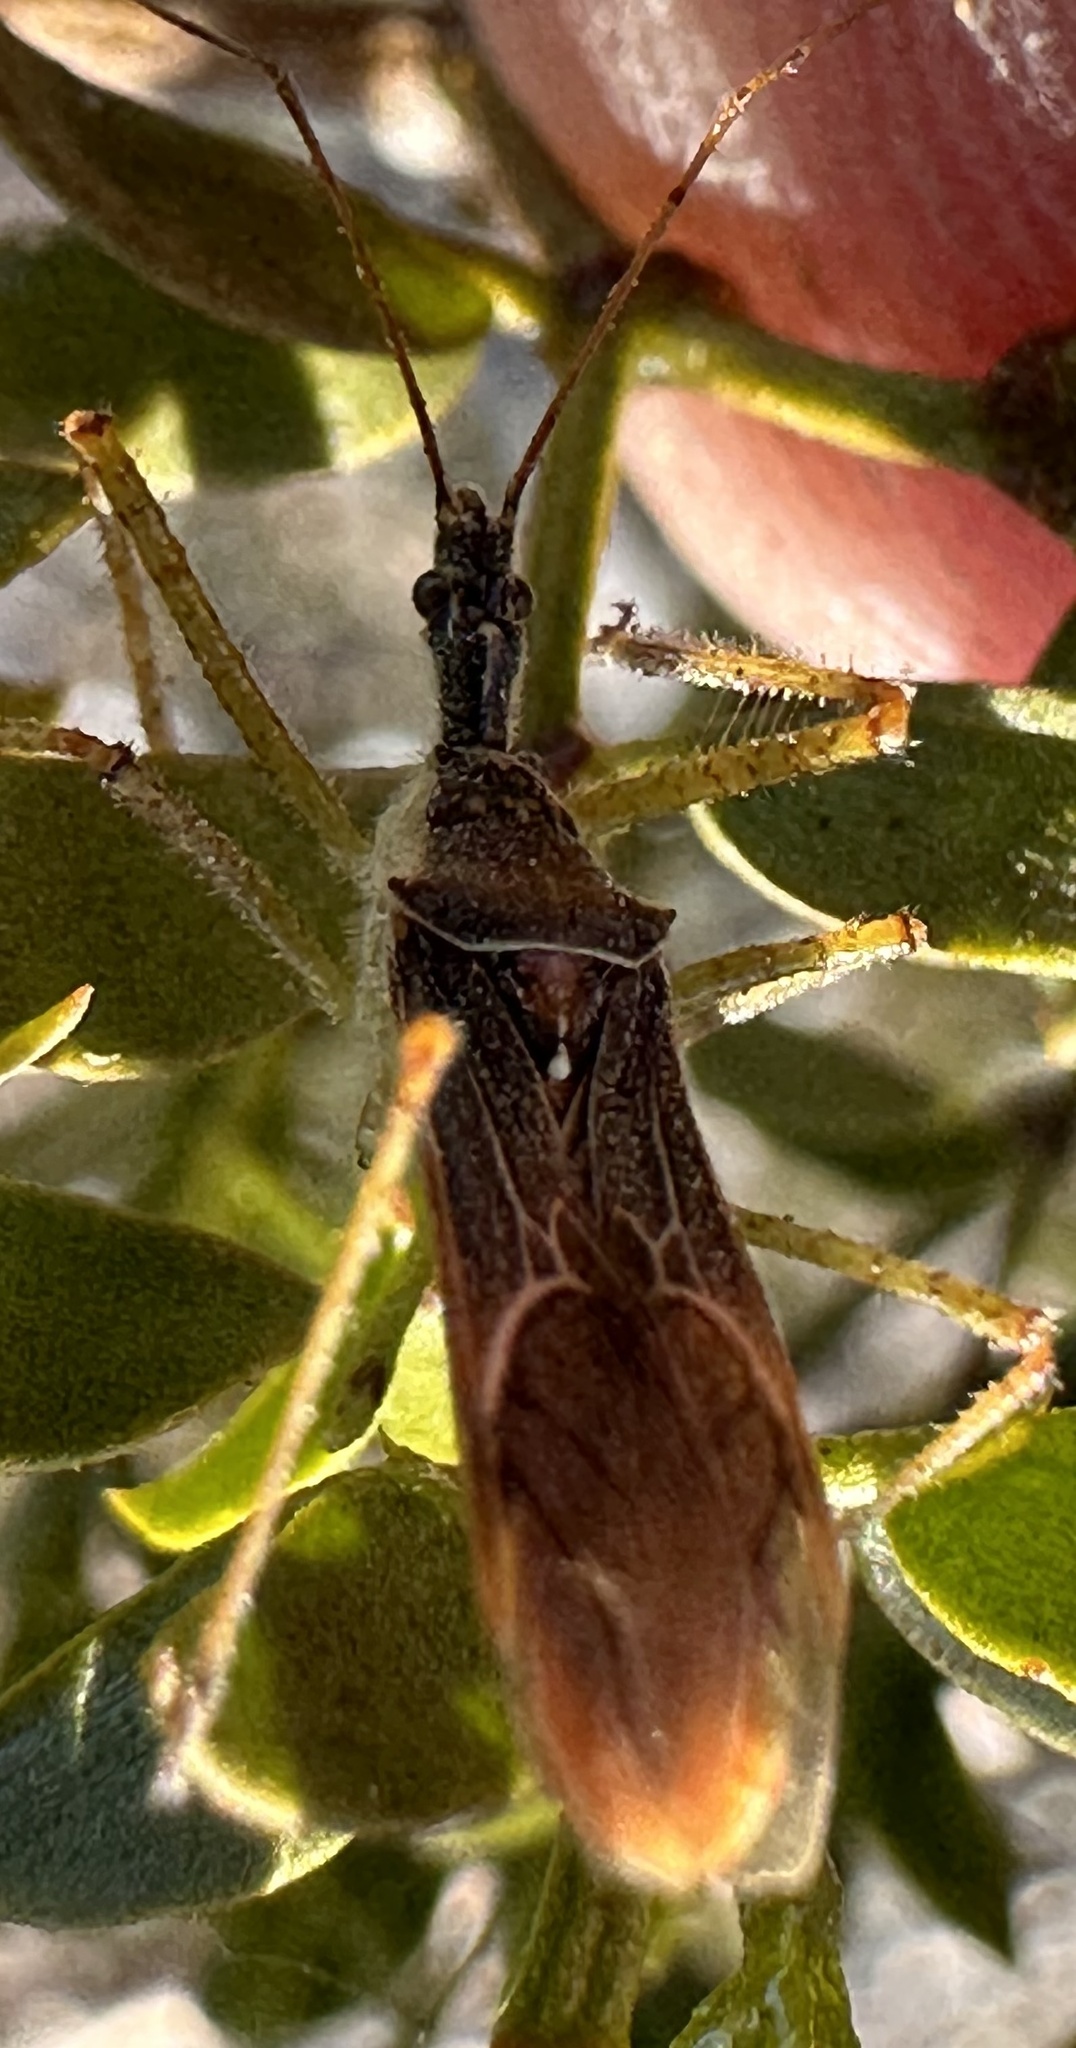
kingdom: Animalia
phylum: Arthropoda
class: Insecta
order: Hemiptera
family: Reduviidae
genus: Zelus
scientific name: Zelus renardii
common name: Assassin bug
